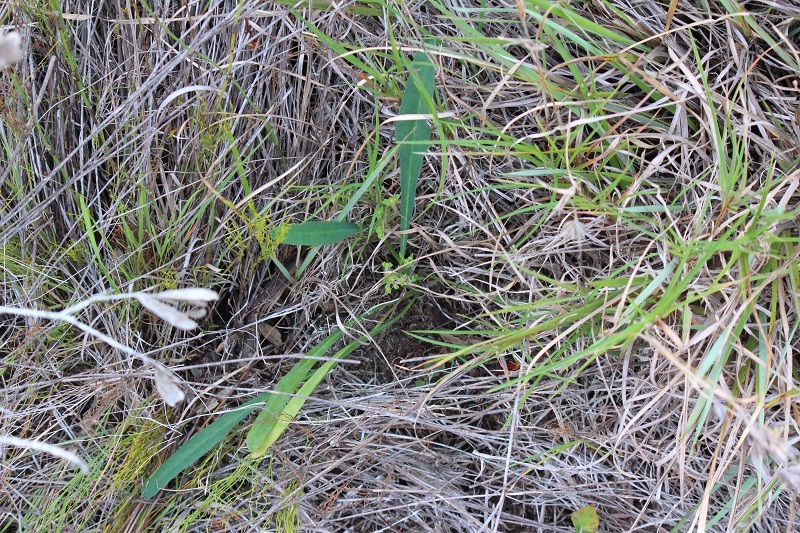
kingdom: Plantae
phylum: Tracheophyta
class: Magnoliopsida
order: Malpighiales
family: Euphorbiaceae
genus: Euphorbia
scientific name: Euphorbia silenifolia
